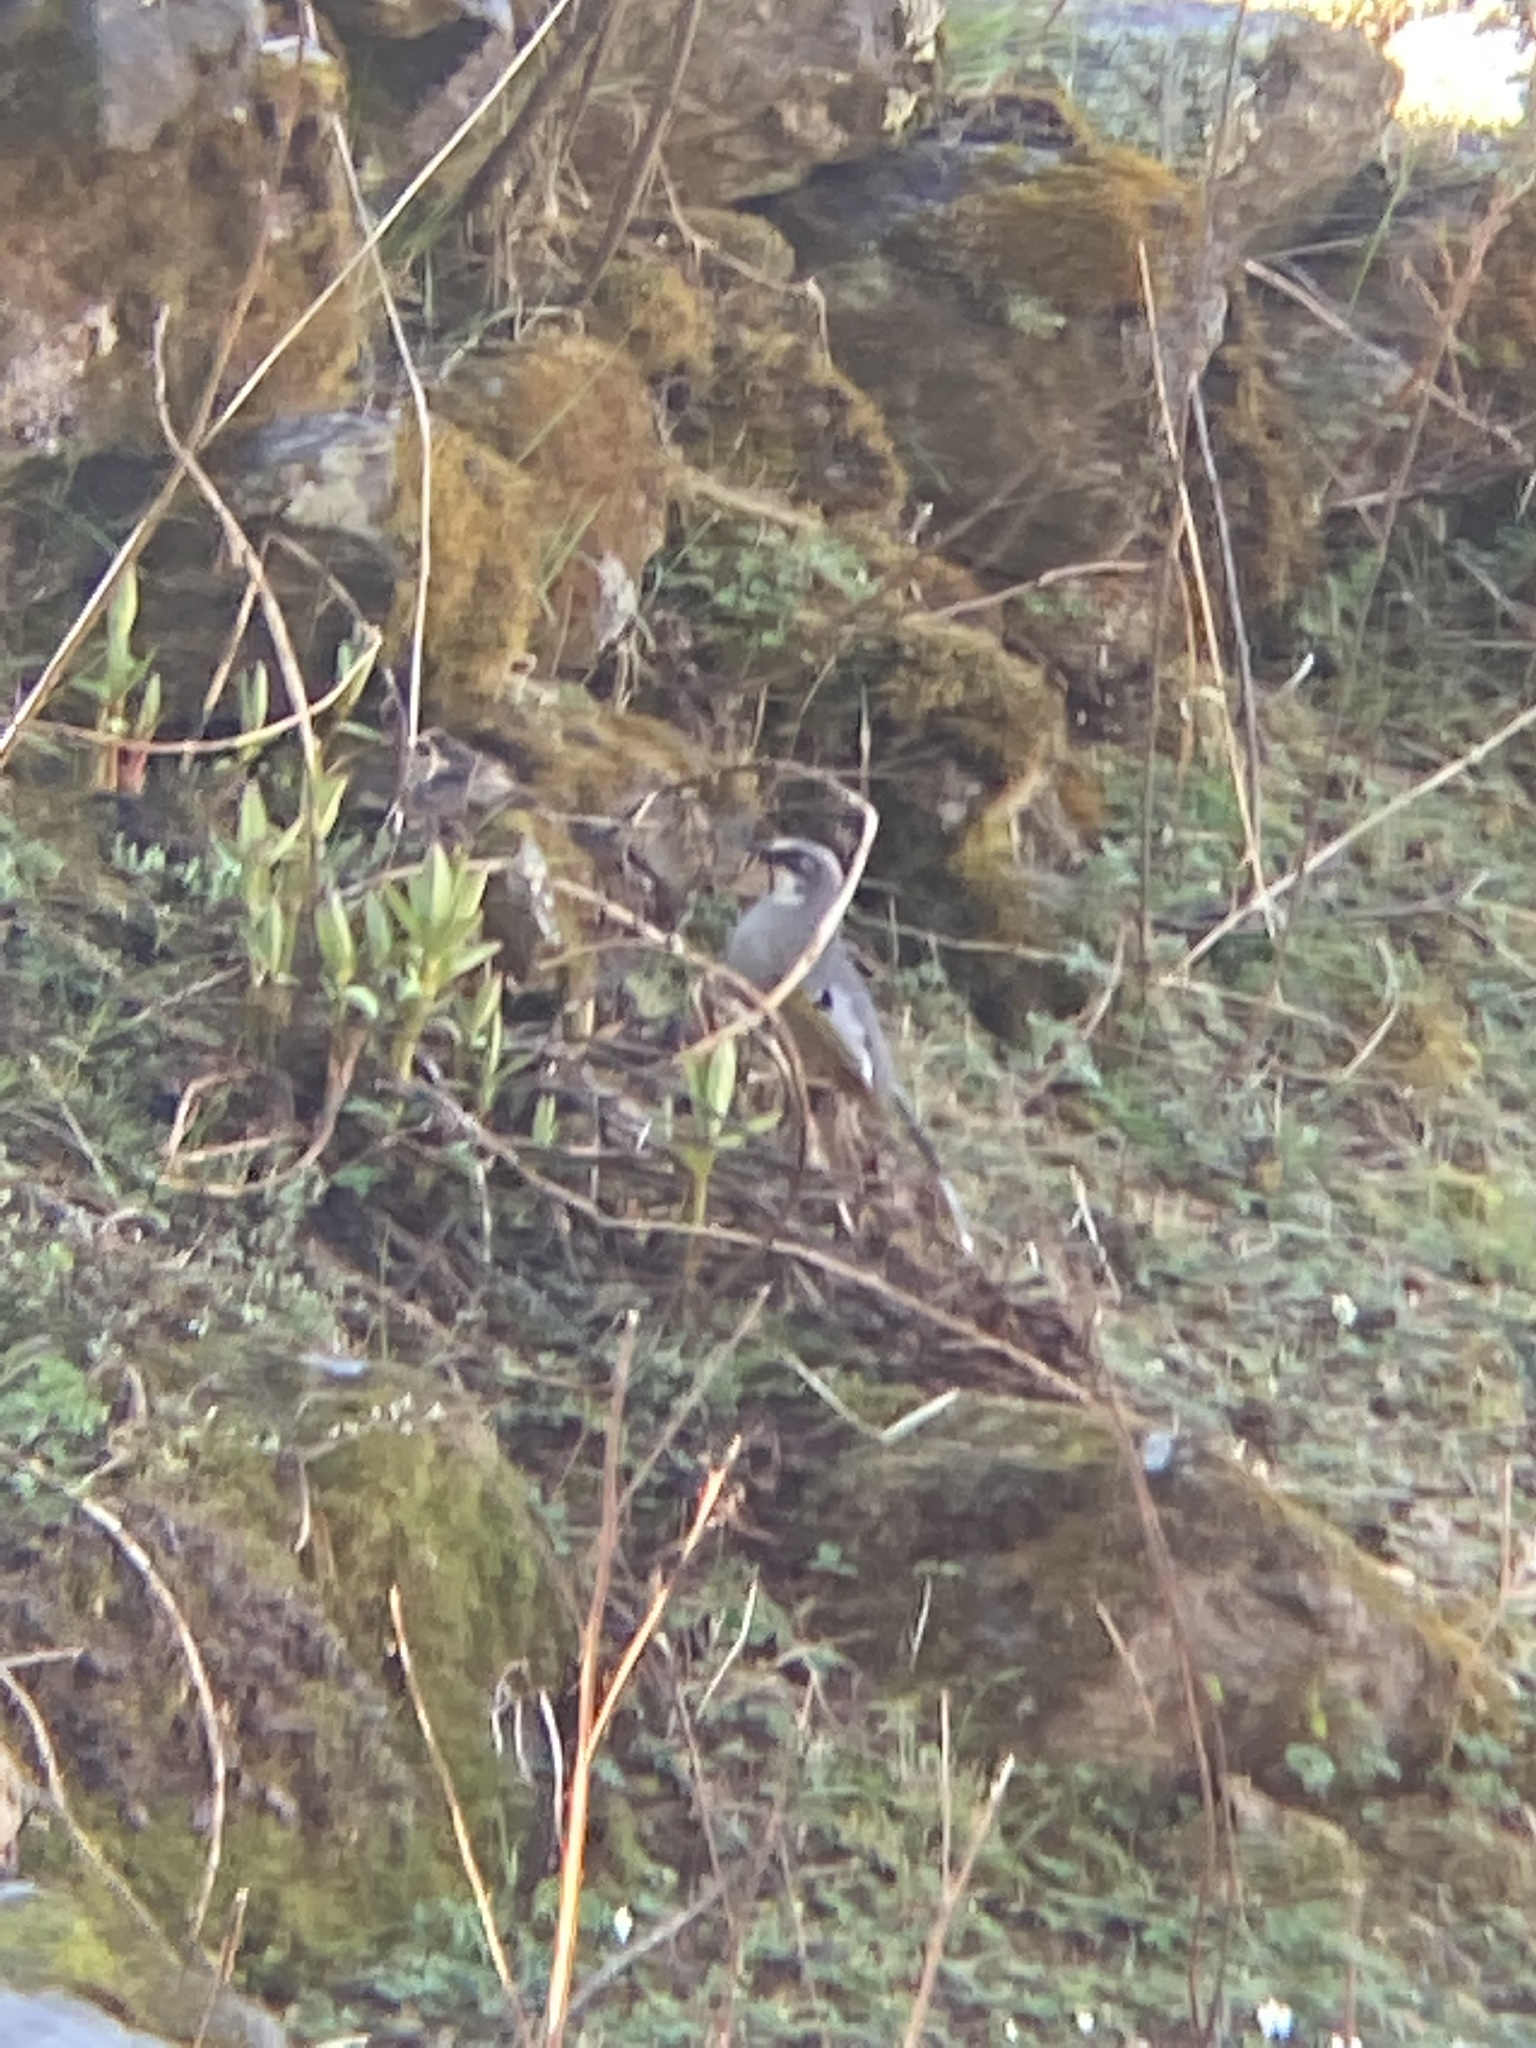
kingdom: Animalia
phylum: Chordata
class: Aves
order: Passeriformes
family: Leiothrichidae
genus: Trochalopteron
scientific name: Trochalopteron variegatum
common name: Variegated laughingthrush
